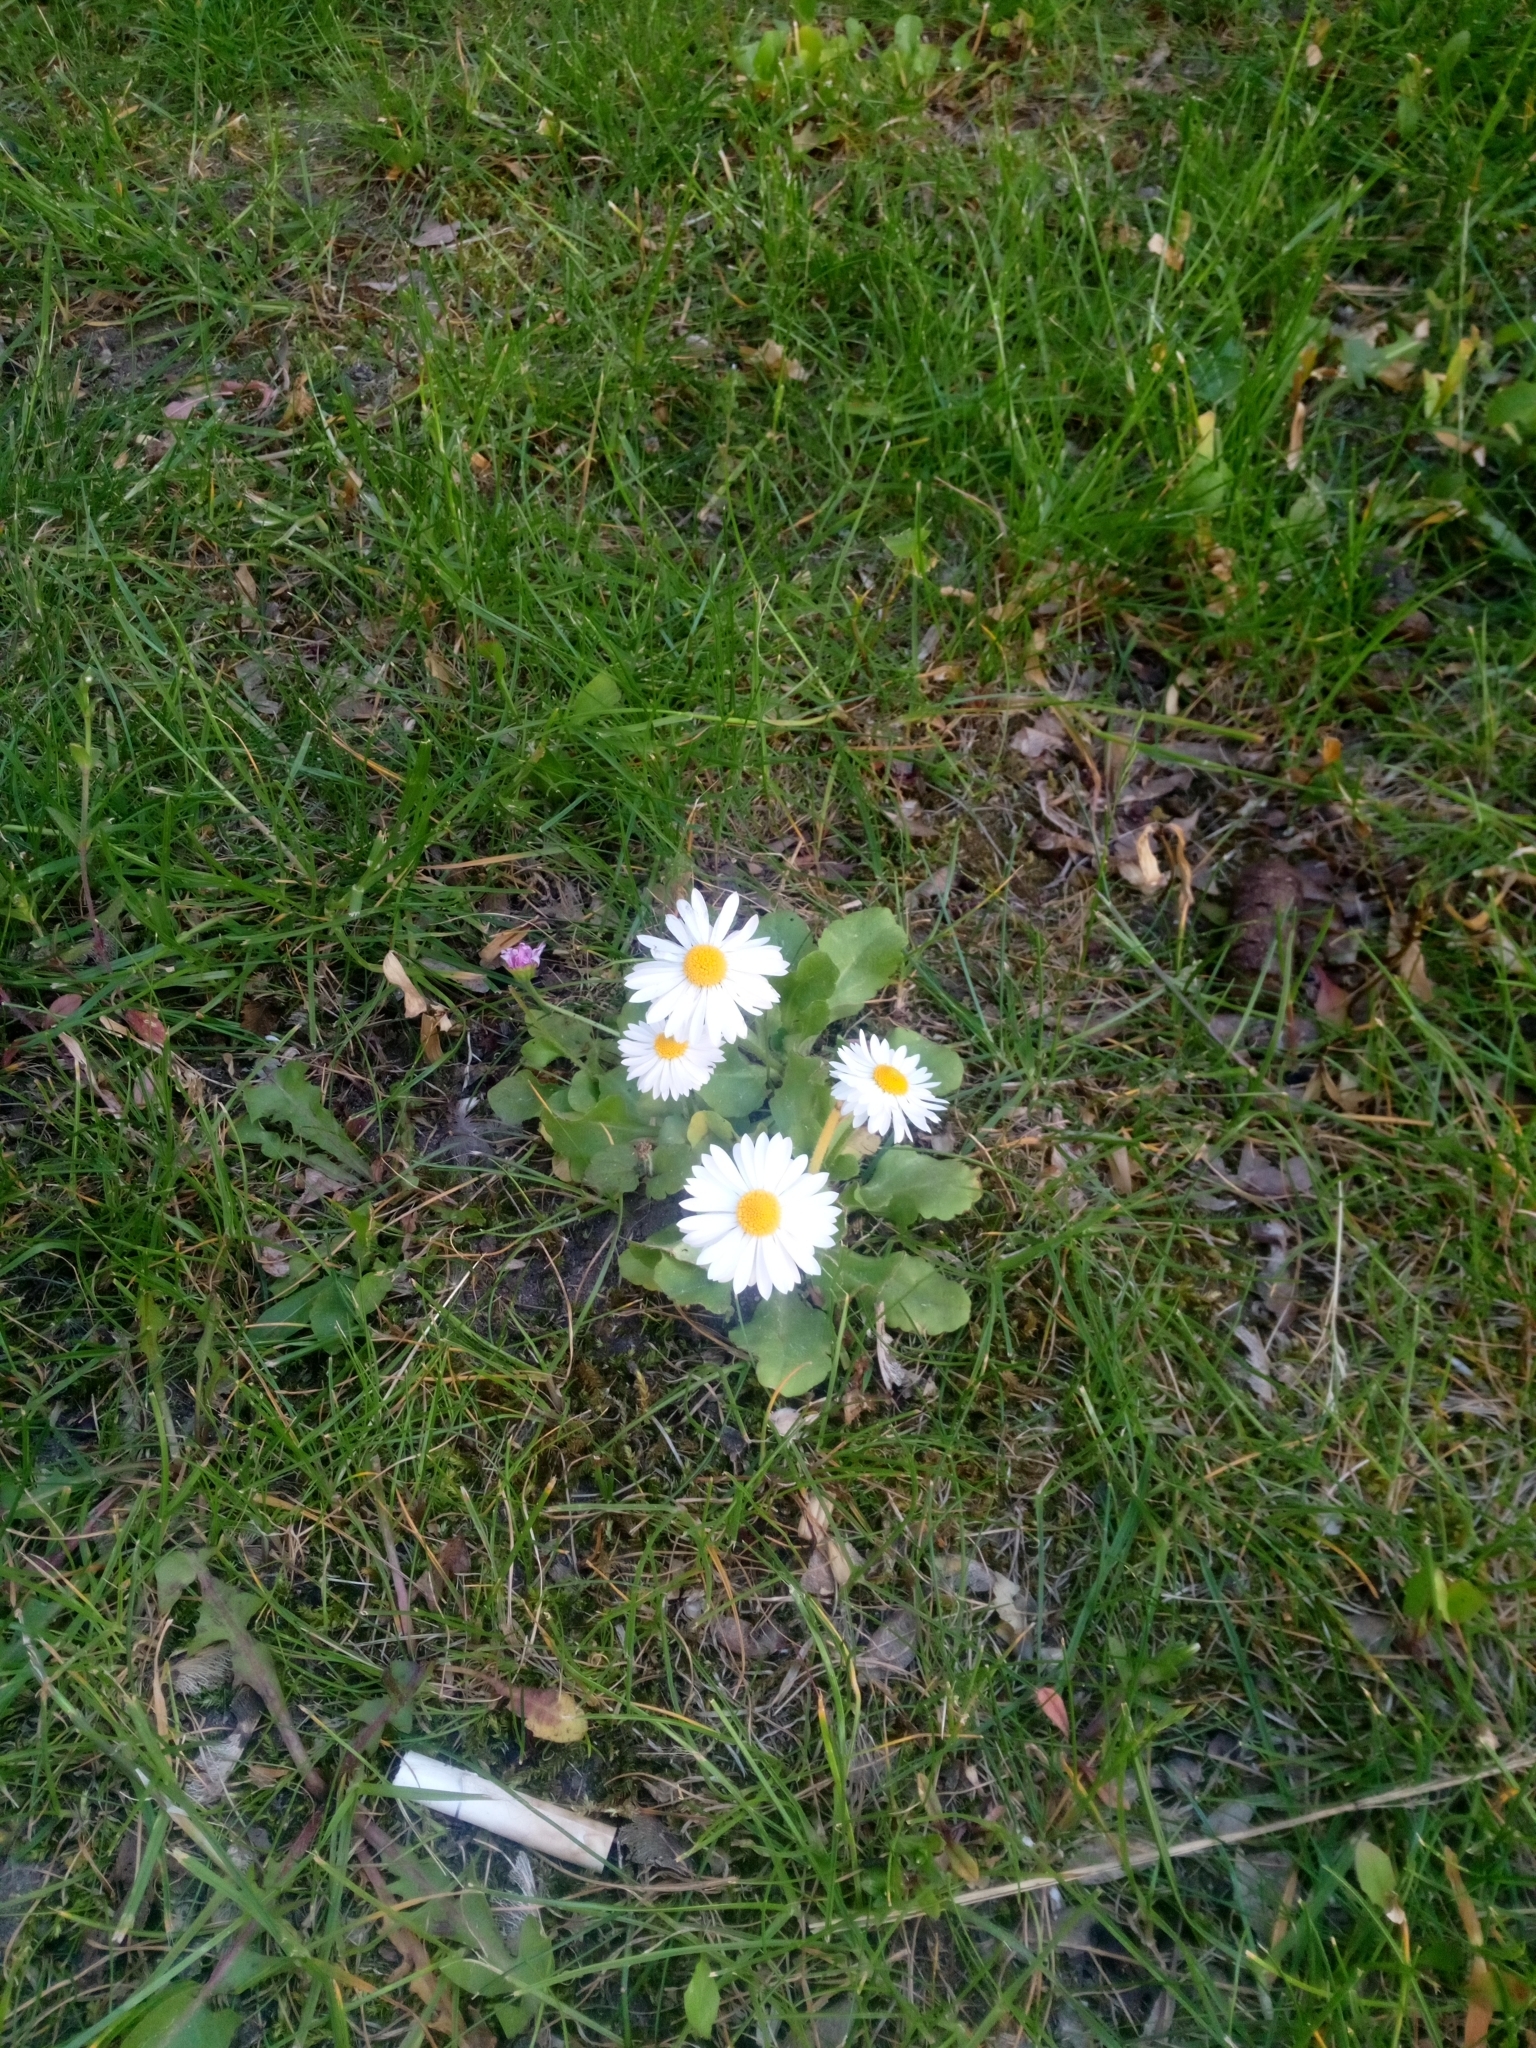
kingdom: Plantae
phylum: Tracheophyta
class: Magnoliopsida
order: Asterales
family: Asteraceae
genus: Bellis
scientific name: Bellis perennis
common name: Lawndaisy
